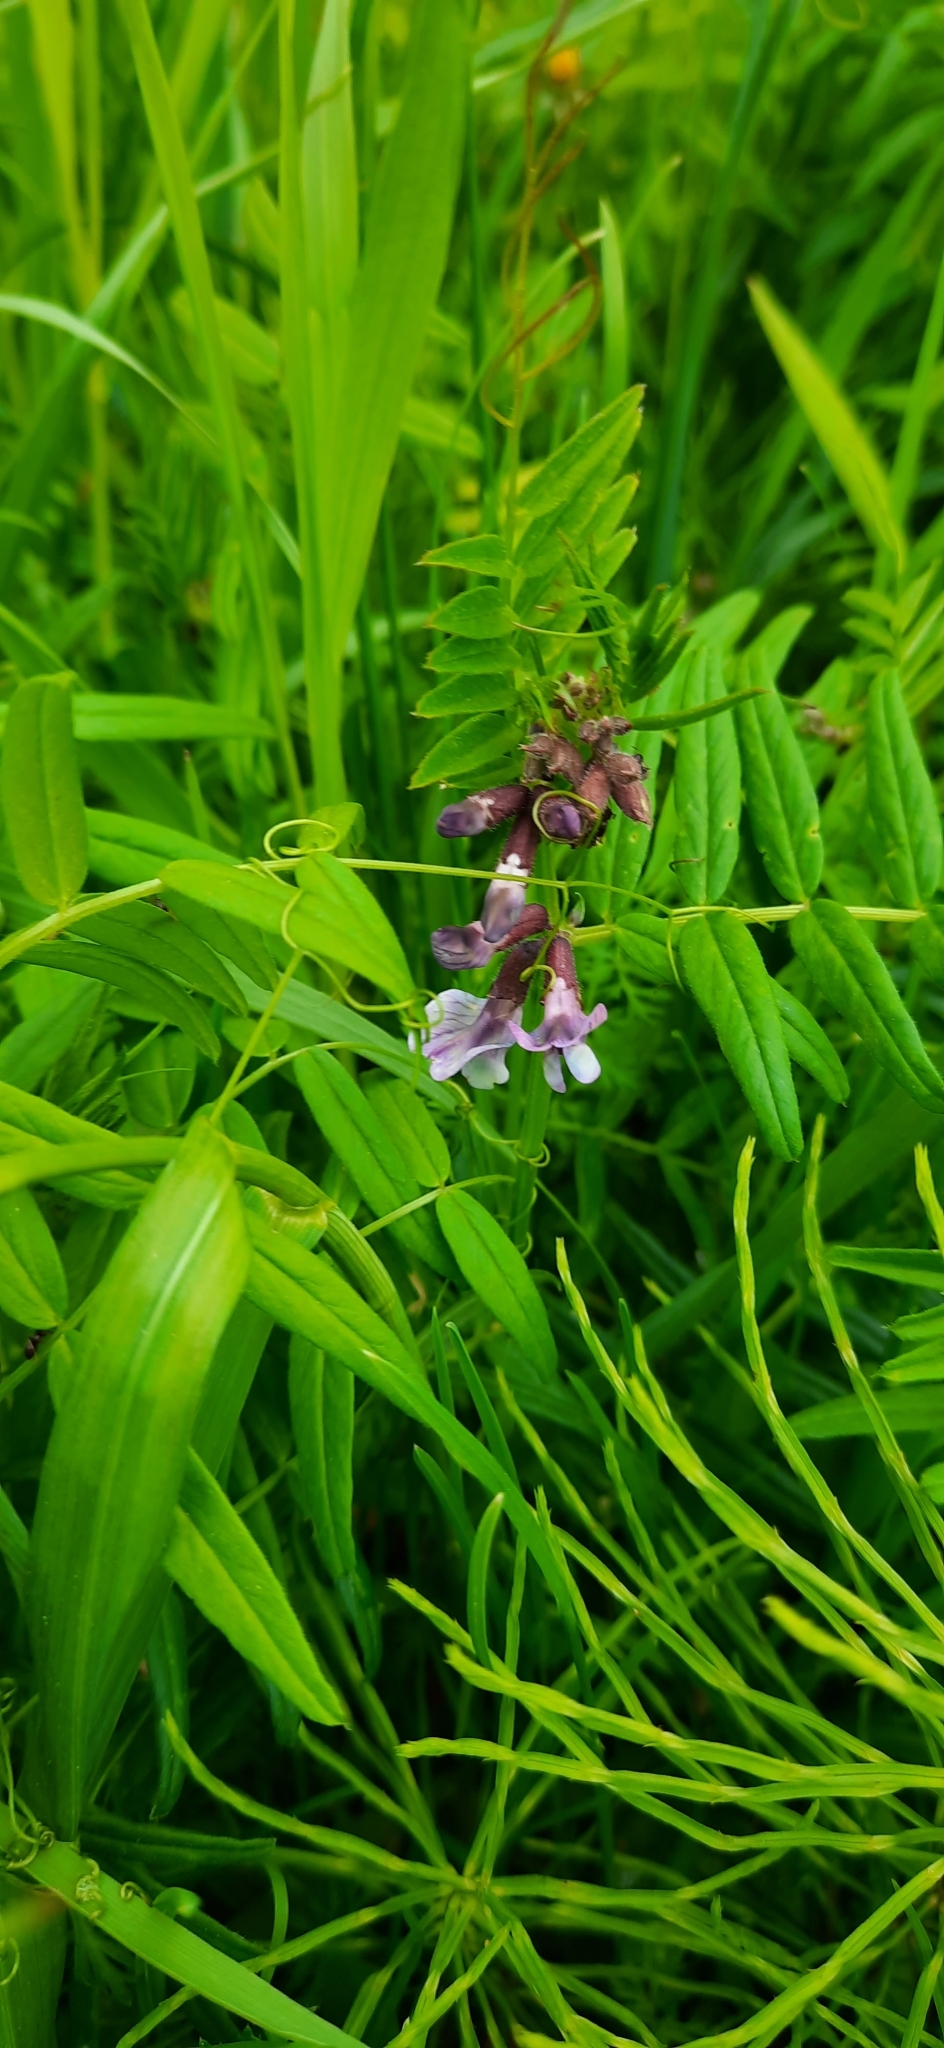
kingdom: Plantae
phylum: Tracheophyta
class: Magnoliopsida
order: Fabales
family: Fabaceae
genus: Vicia
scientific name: Vicia sepium
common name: Bush vetch
